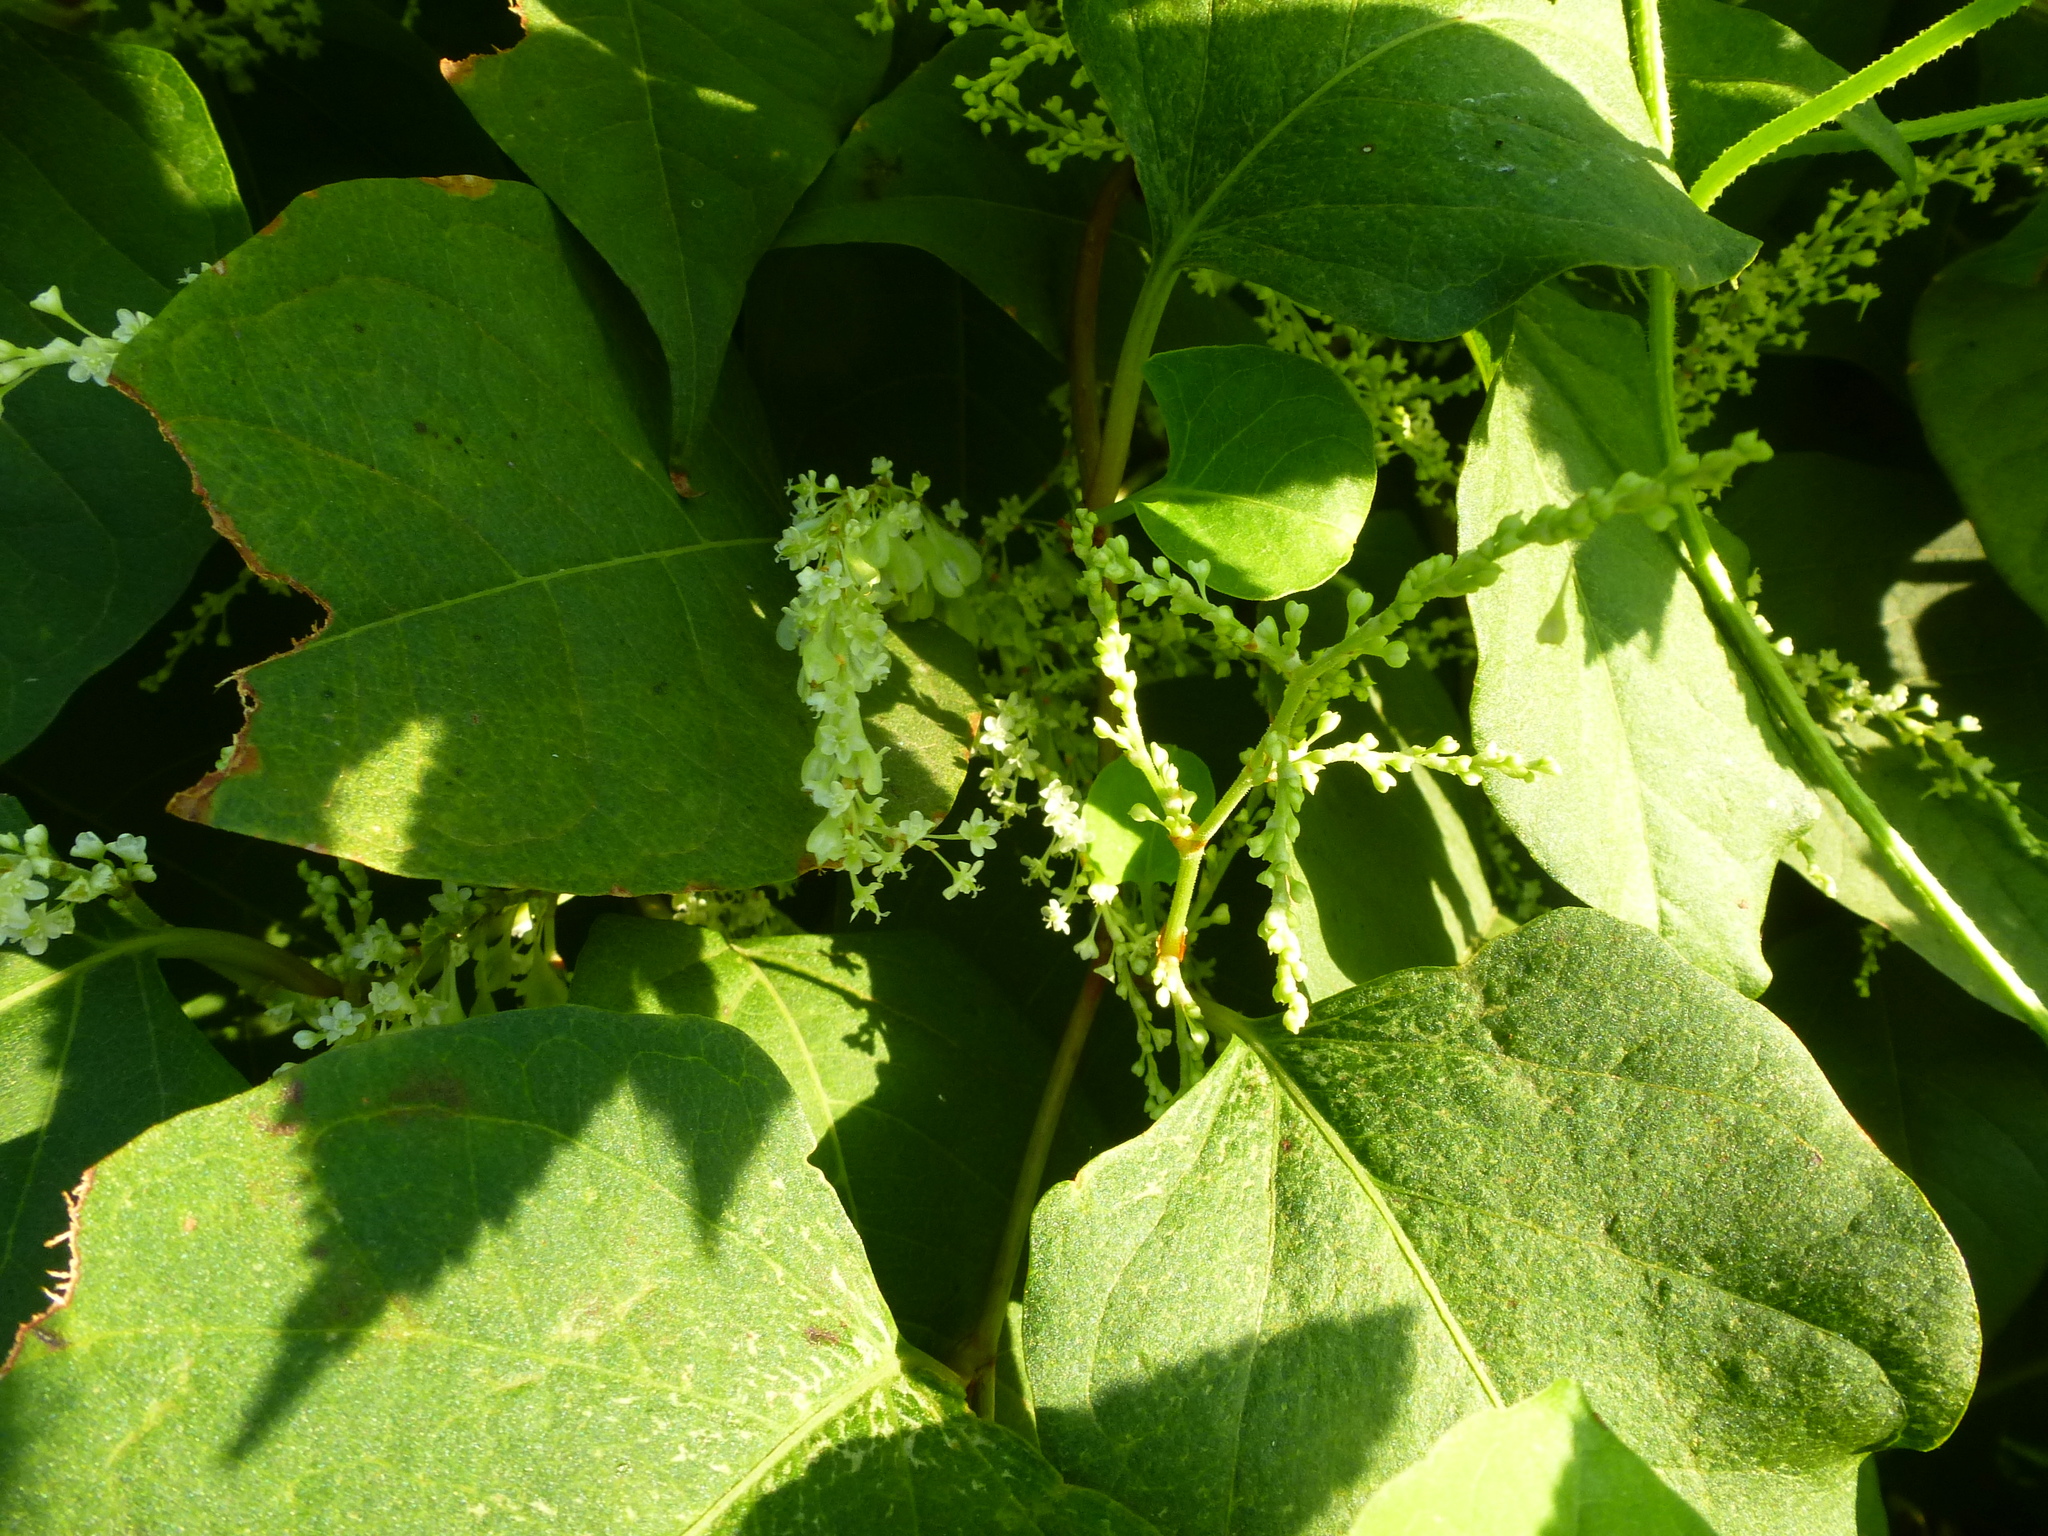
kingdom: Plantae
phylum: Tracheophyta
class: Magnoliopsida
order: Caryophyllales
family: Polygonaceae
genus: Reynoutria
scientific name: Reynoutria japonica
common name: Japanese knotweed
